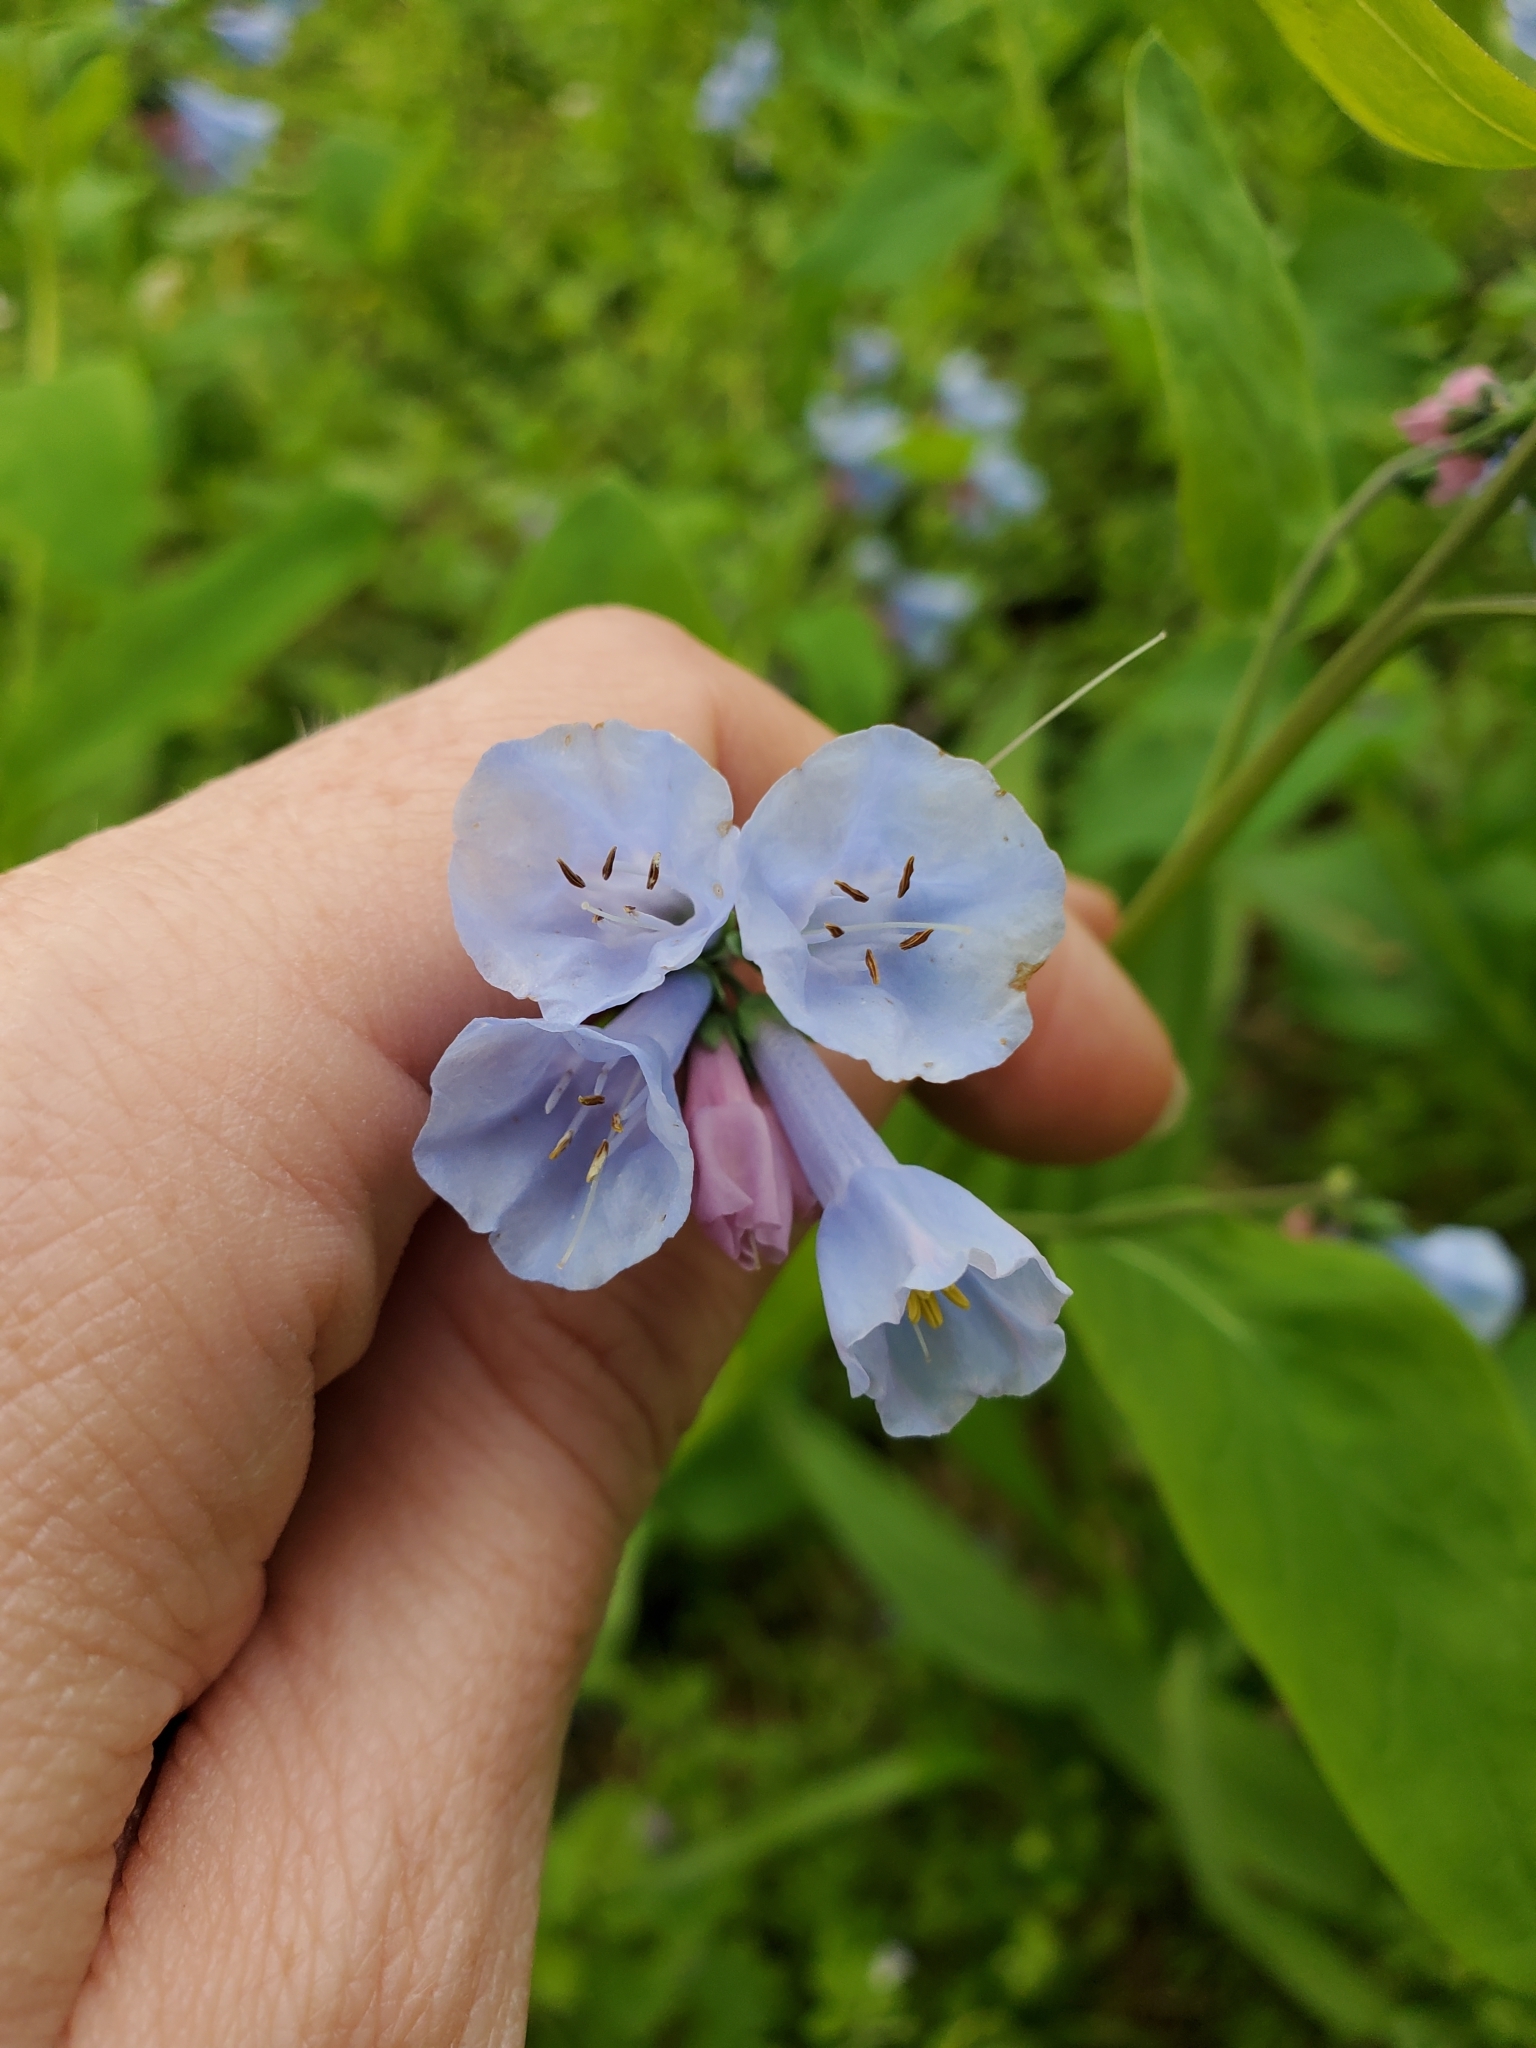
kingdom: Plantae
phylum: Tracheophyta
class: Magnoliopsida
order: Boraginales
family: Boraginaceae
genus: Mertensia
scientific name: Mertensia virginica
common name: Virginia bluebells
